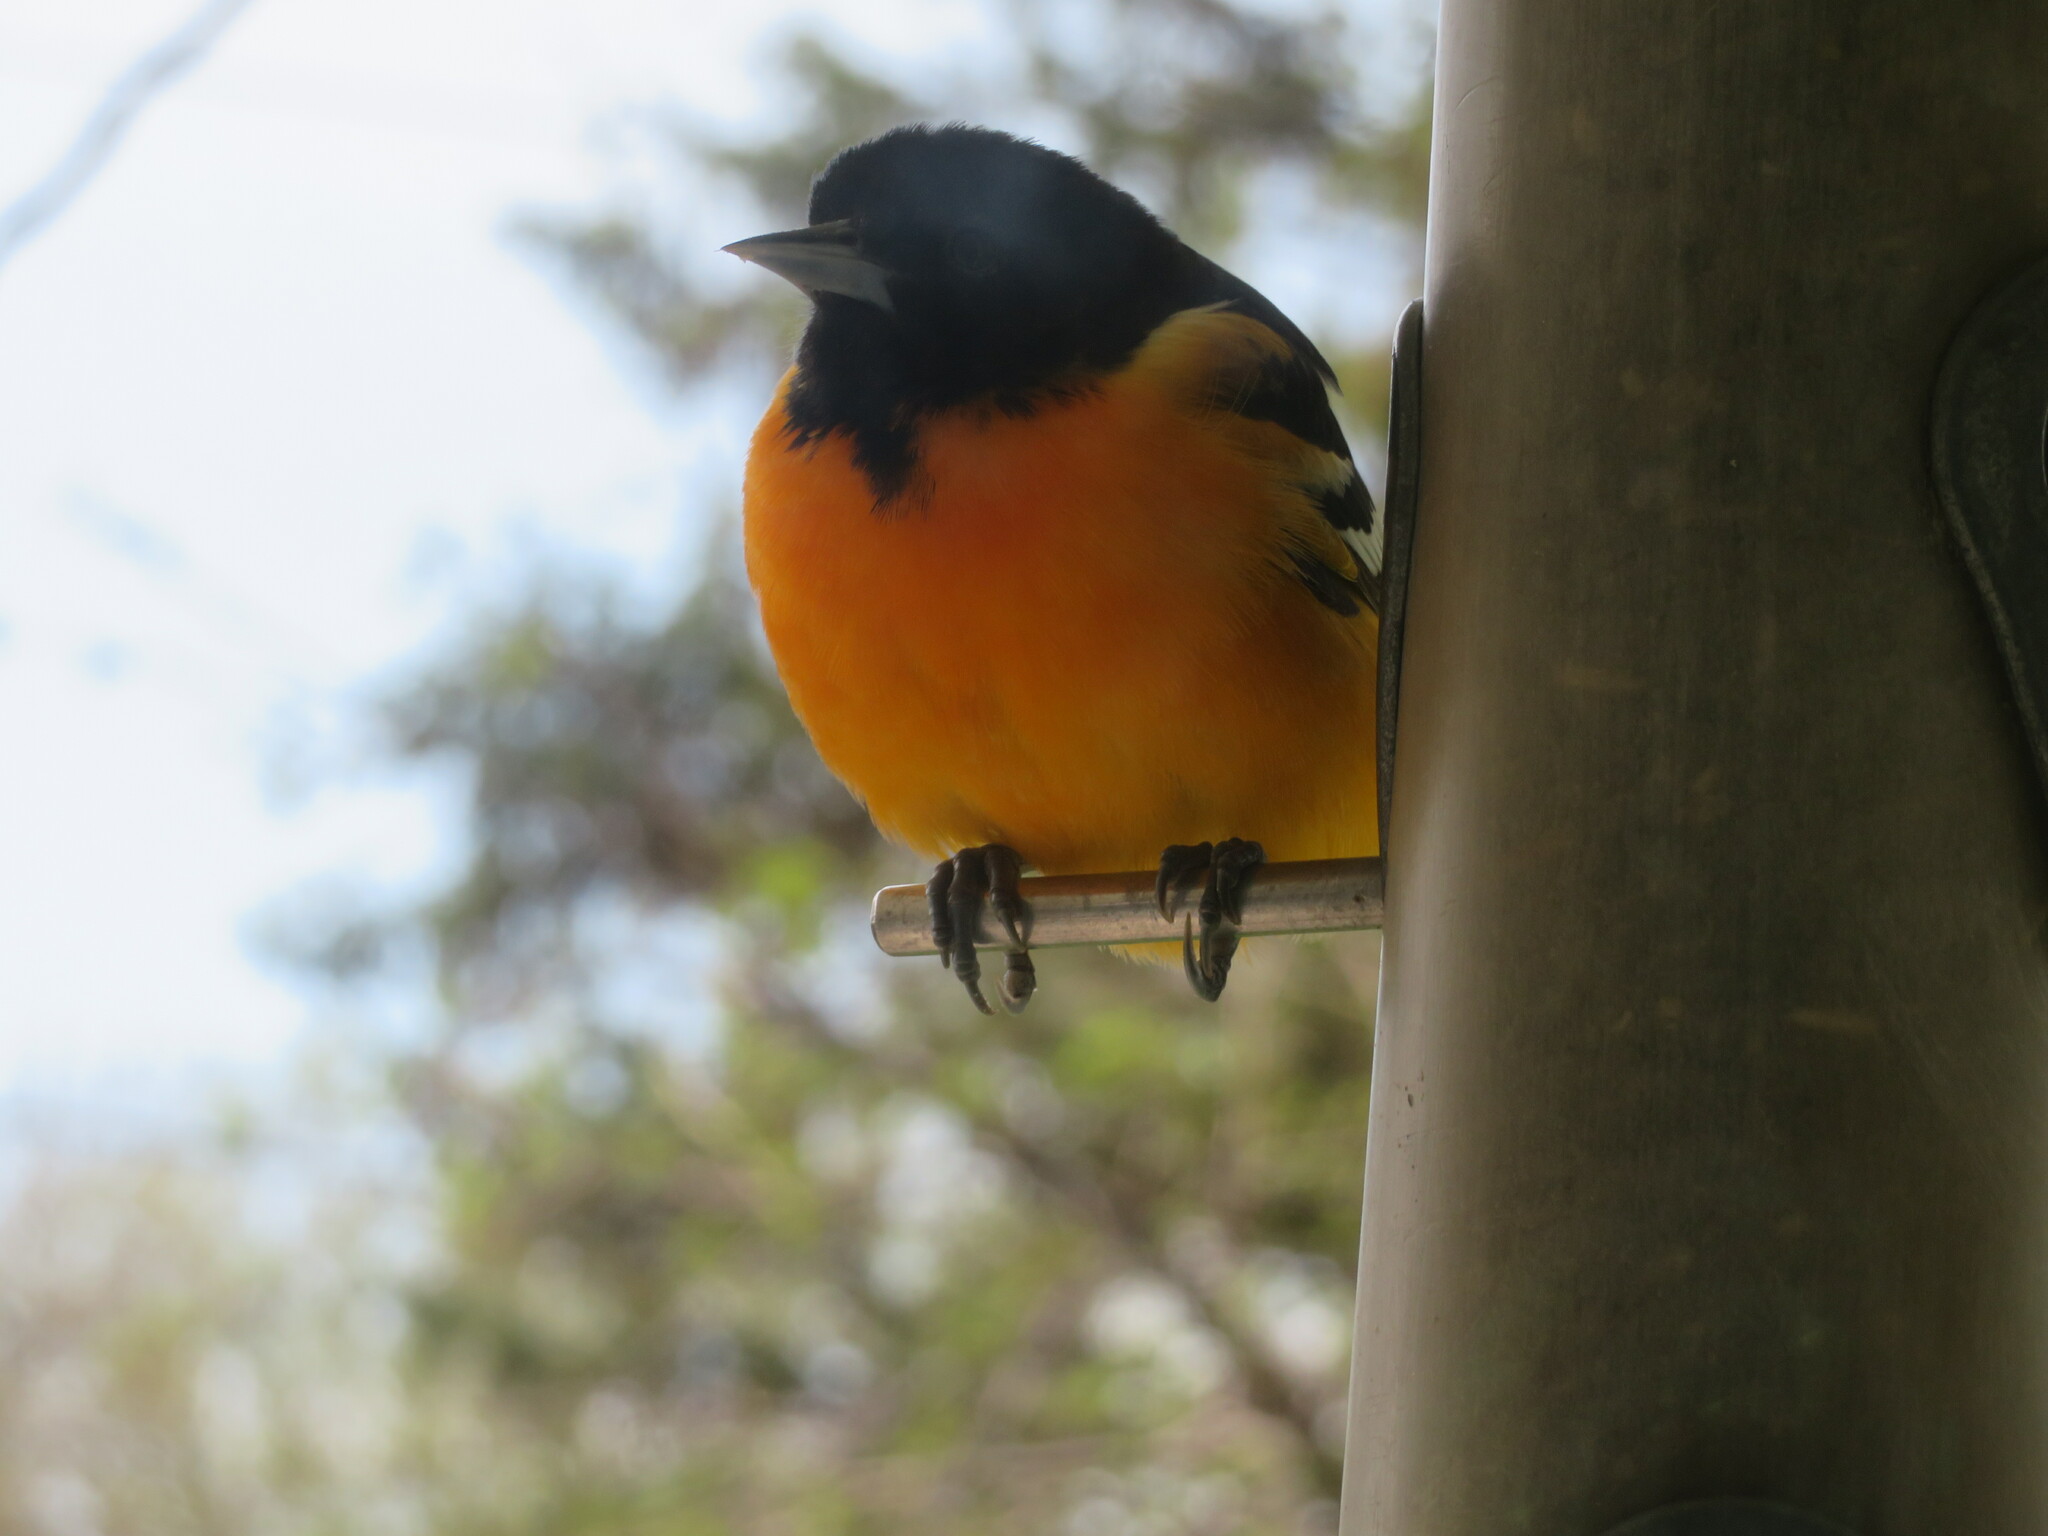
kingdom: Animalia
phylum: Chordata
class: Aves
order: Passeriformes
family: Icteridae
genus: Icterus
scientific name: Icterus galbula
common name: Baltimore oriole
